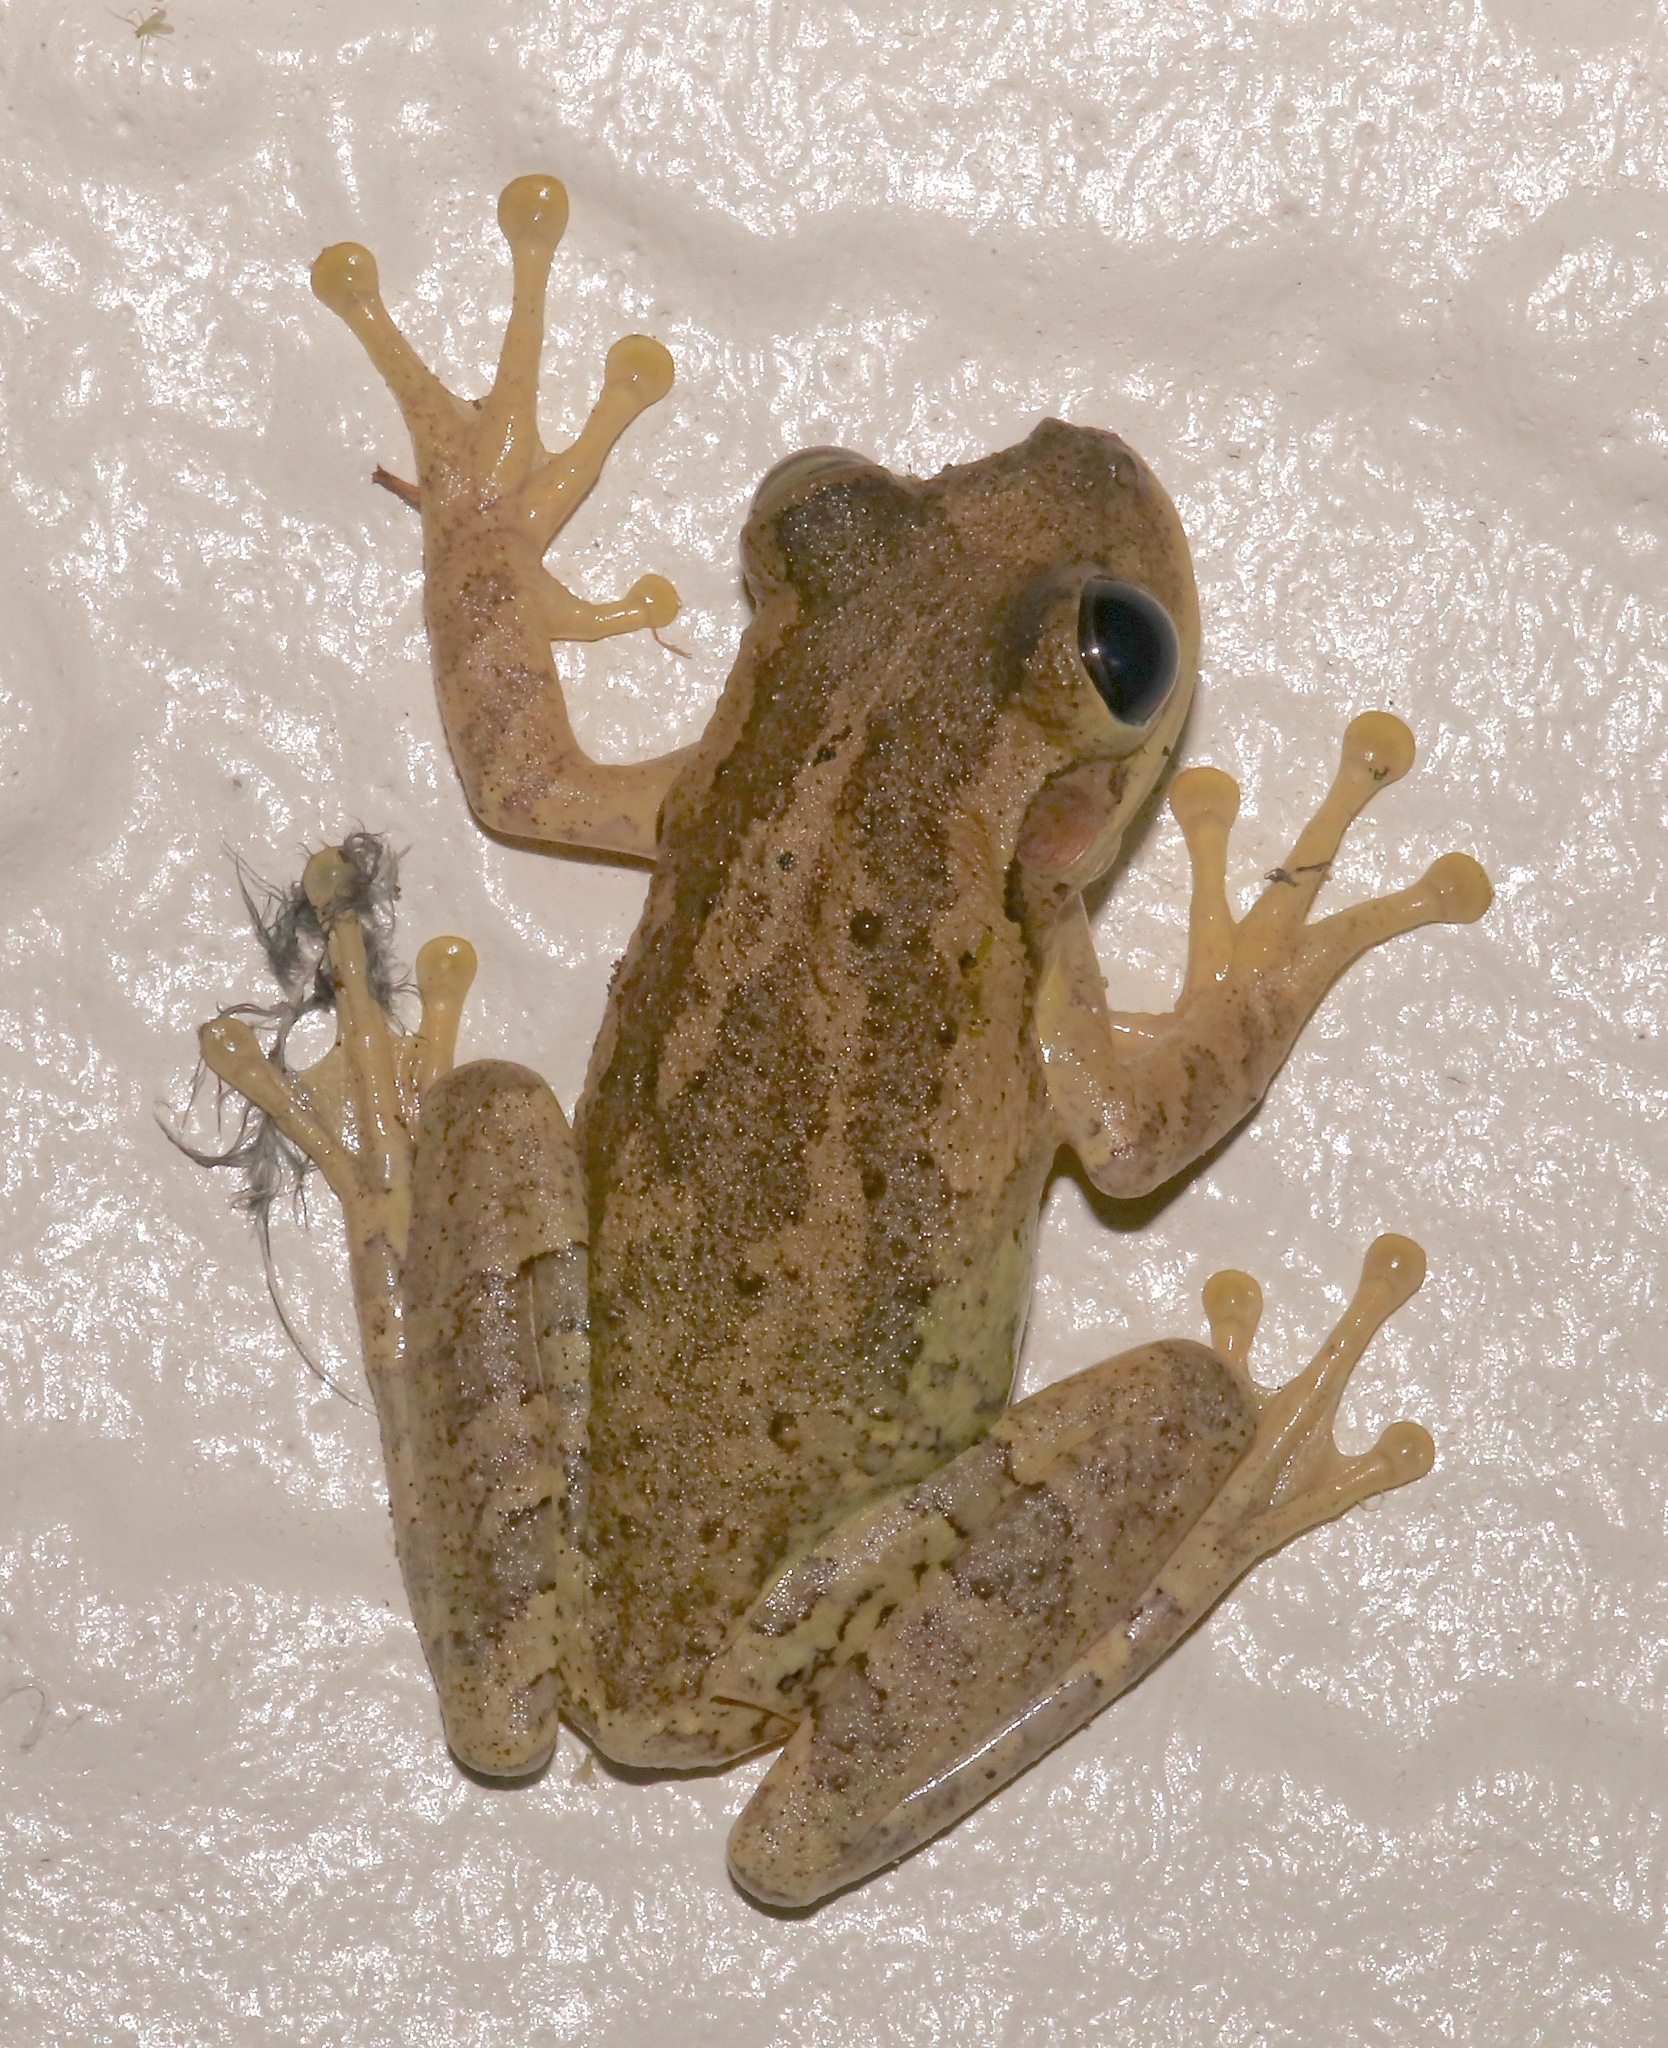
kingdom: Animalia
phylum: Chordata
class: Amphibia
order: Anura
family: Hylidae
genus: Osteopilus
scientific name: Osteopilus septentrionalis
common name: Cuban treefrog
